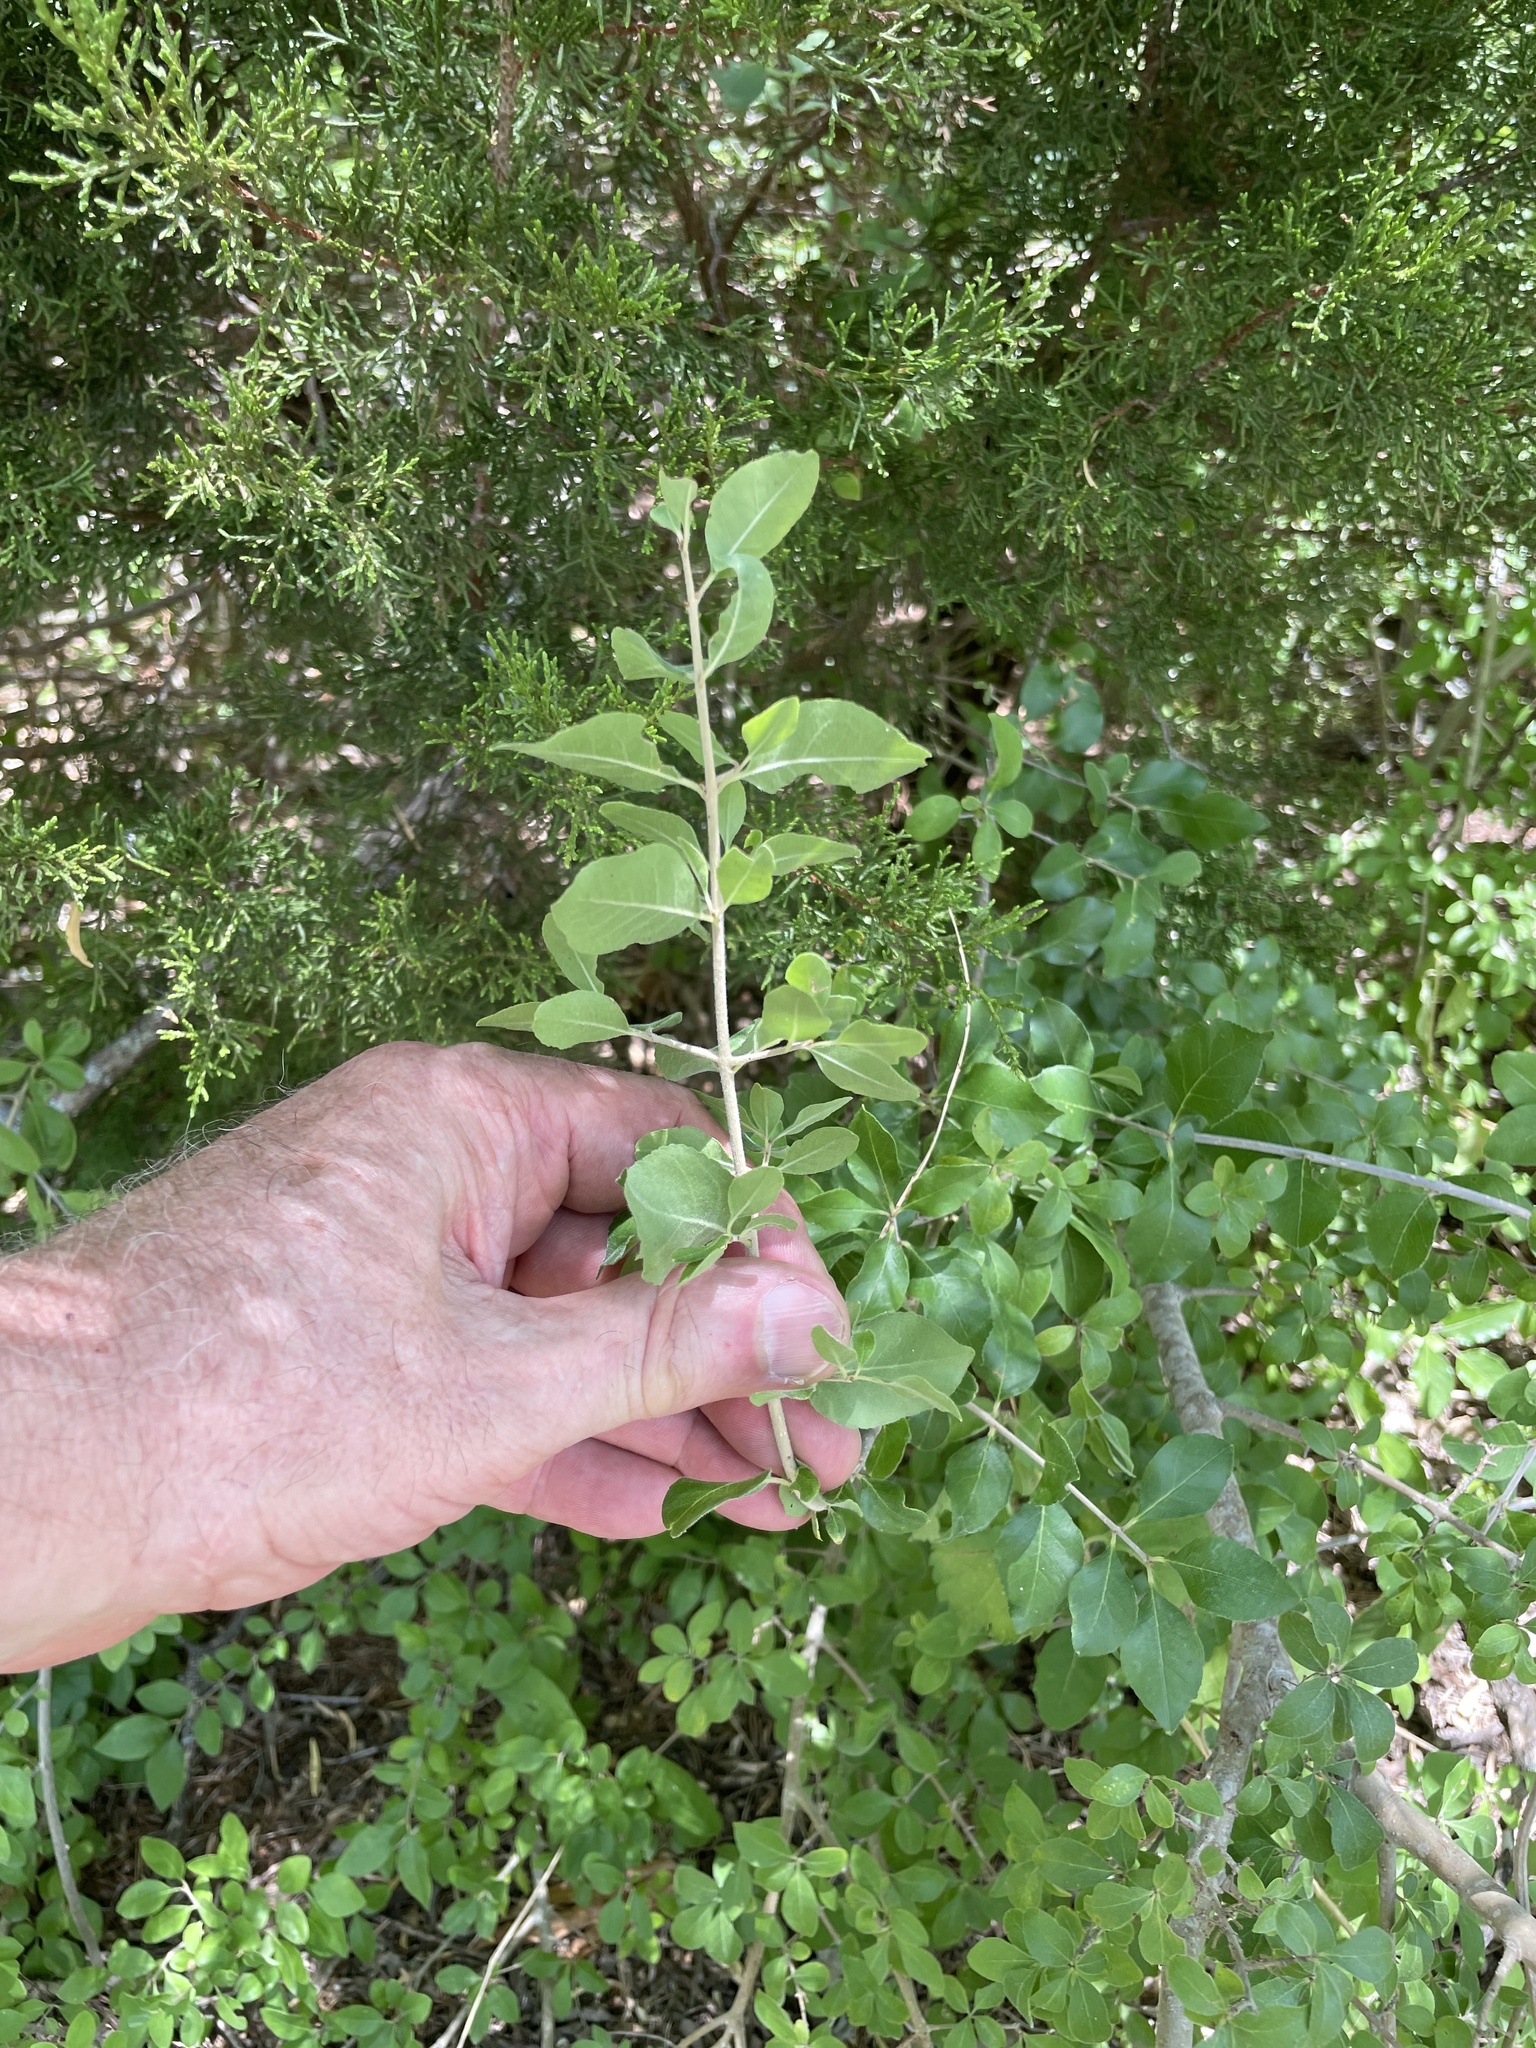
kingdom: Plantae
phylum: Tracheophyta
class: Magnoliopsida
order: Lamiales
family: Oleaceae
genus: Forestiera
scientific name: Forestiera pubescens
